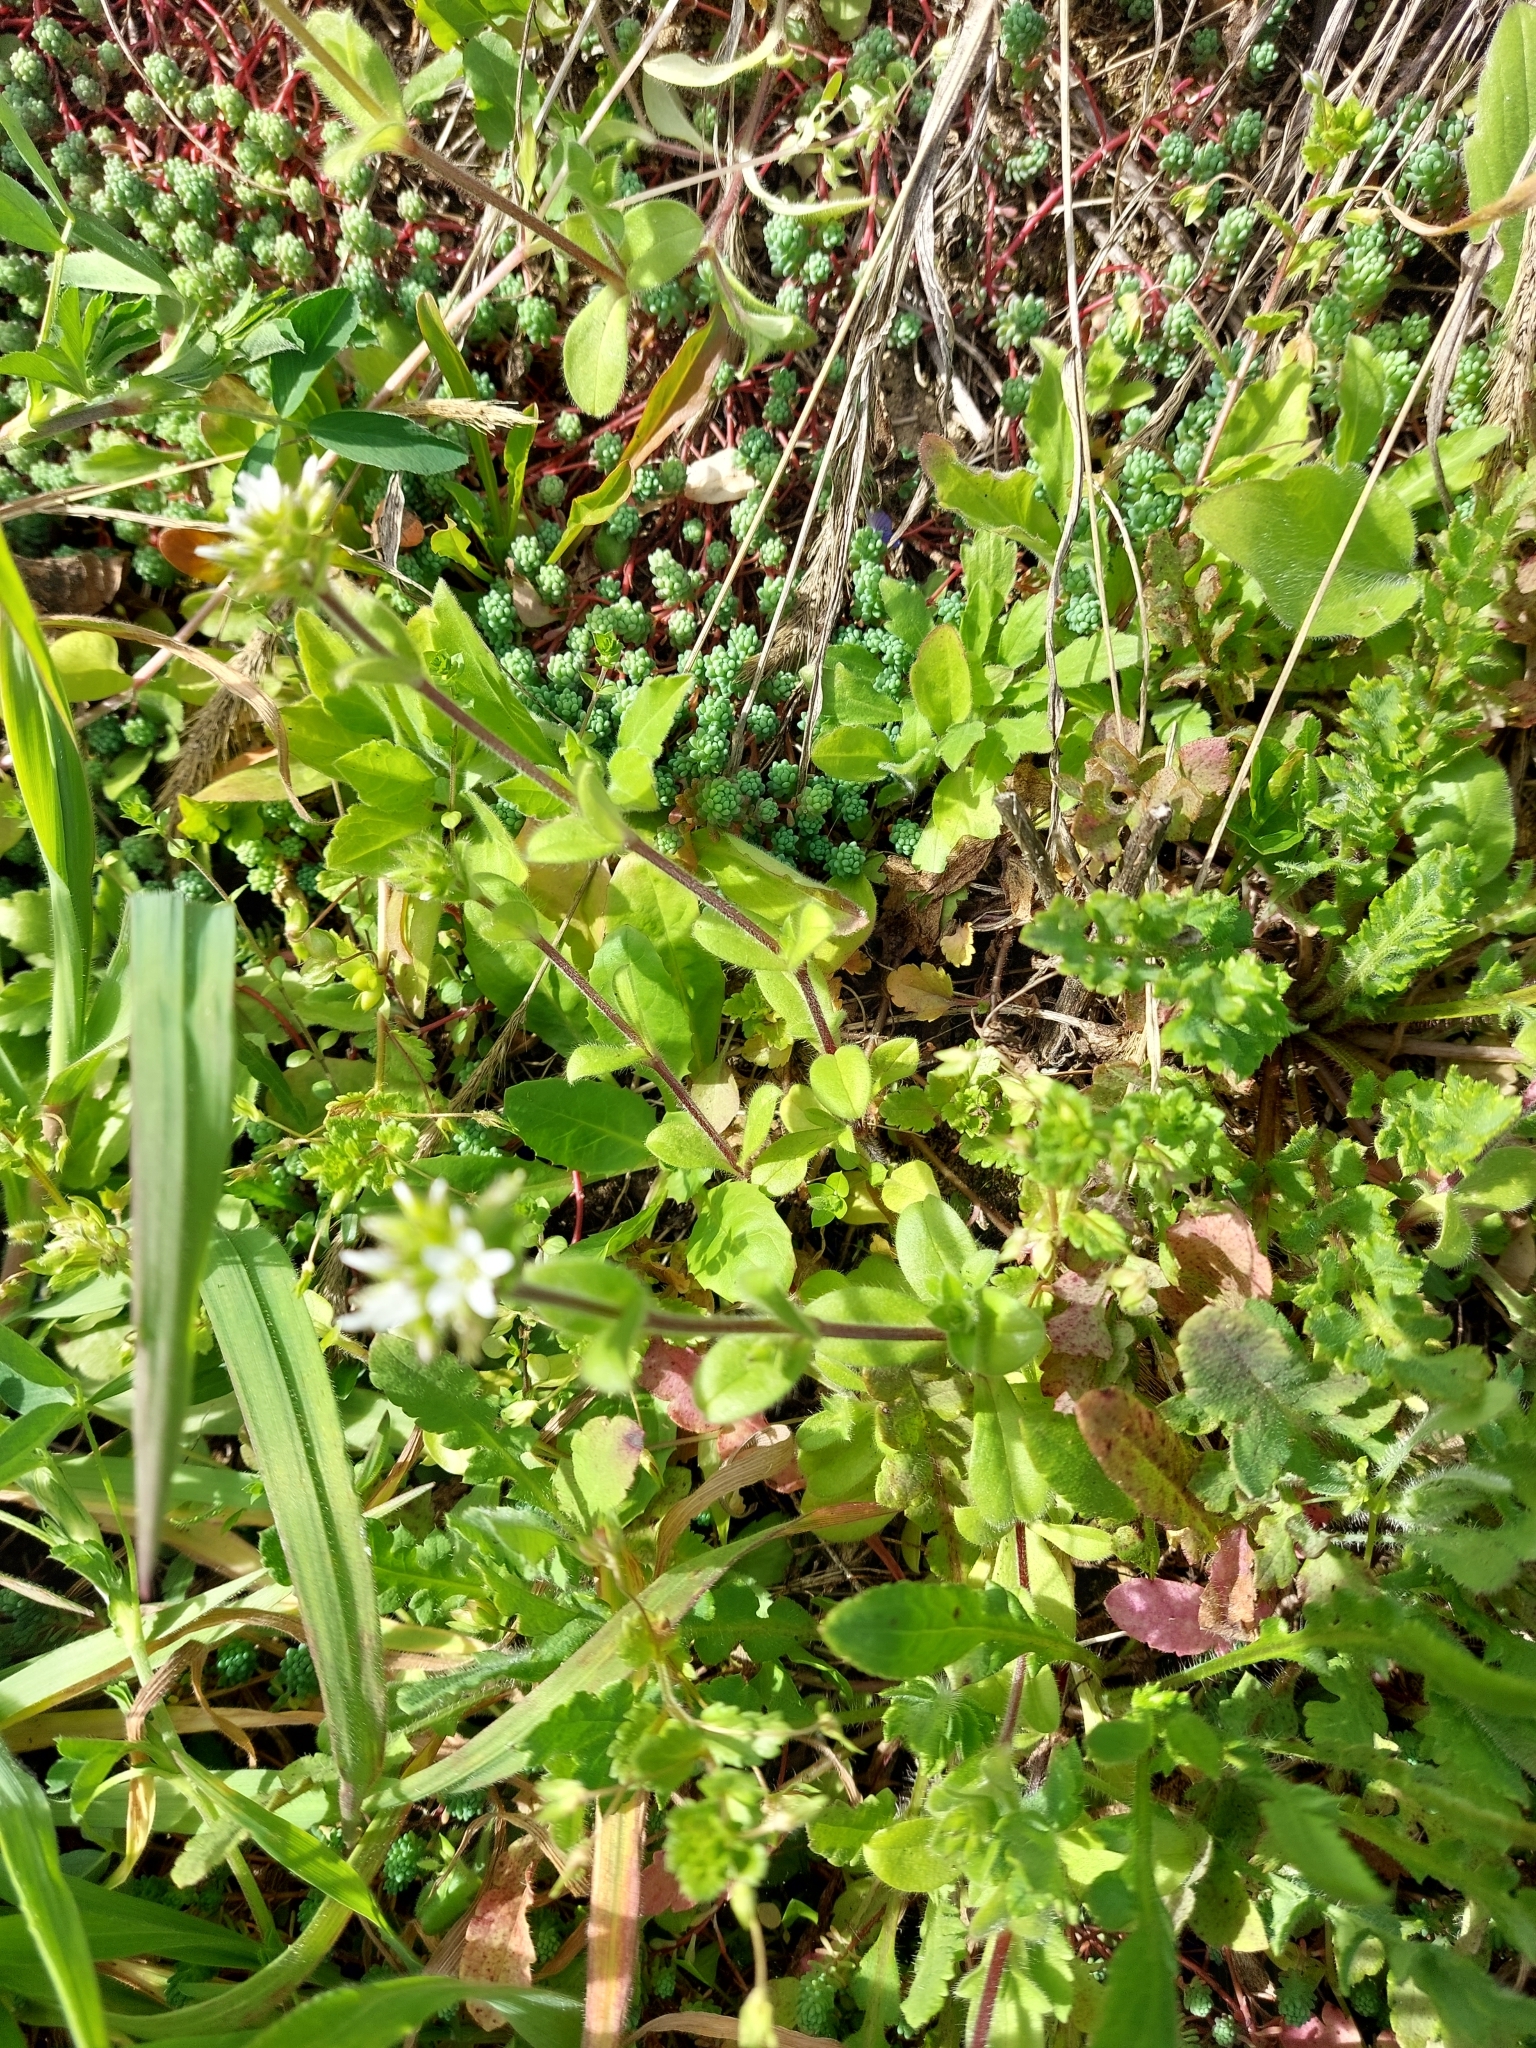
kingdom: Plantae
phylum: Tracheophyta
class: Magnoliopsida
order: Caryophyllales
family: Caryophyllaceae
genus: Cerastium
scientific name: Cerastium glomeratum
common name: Sticky chickweed
